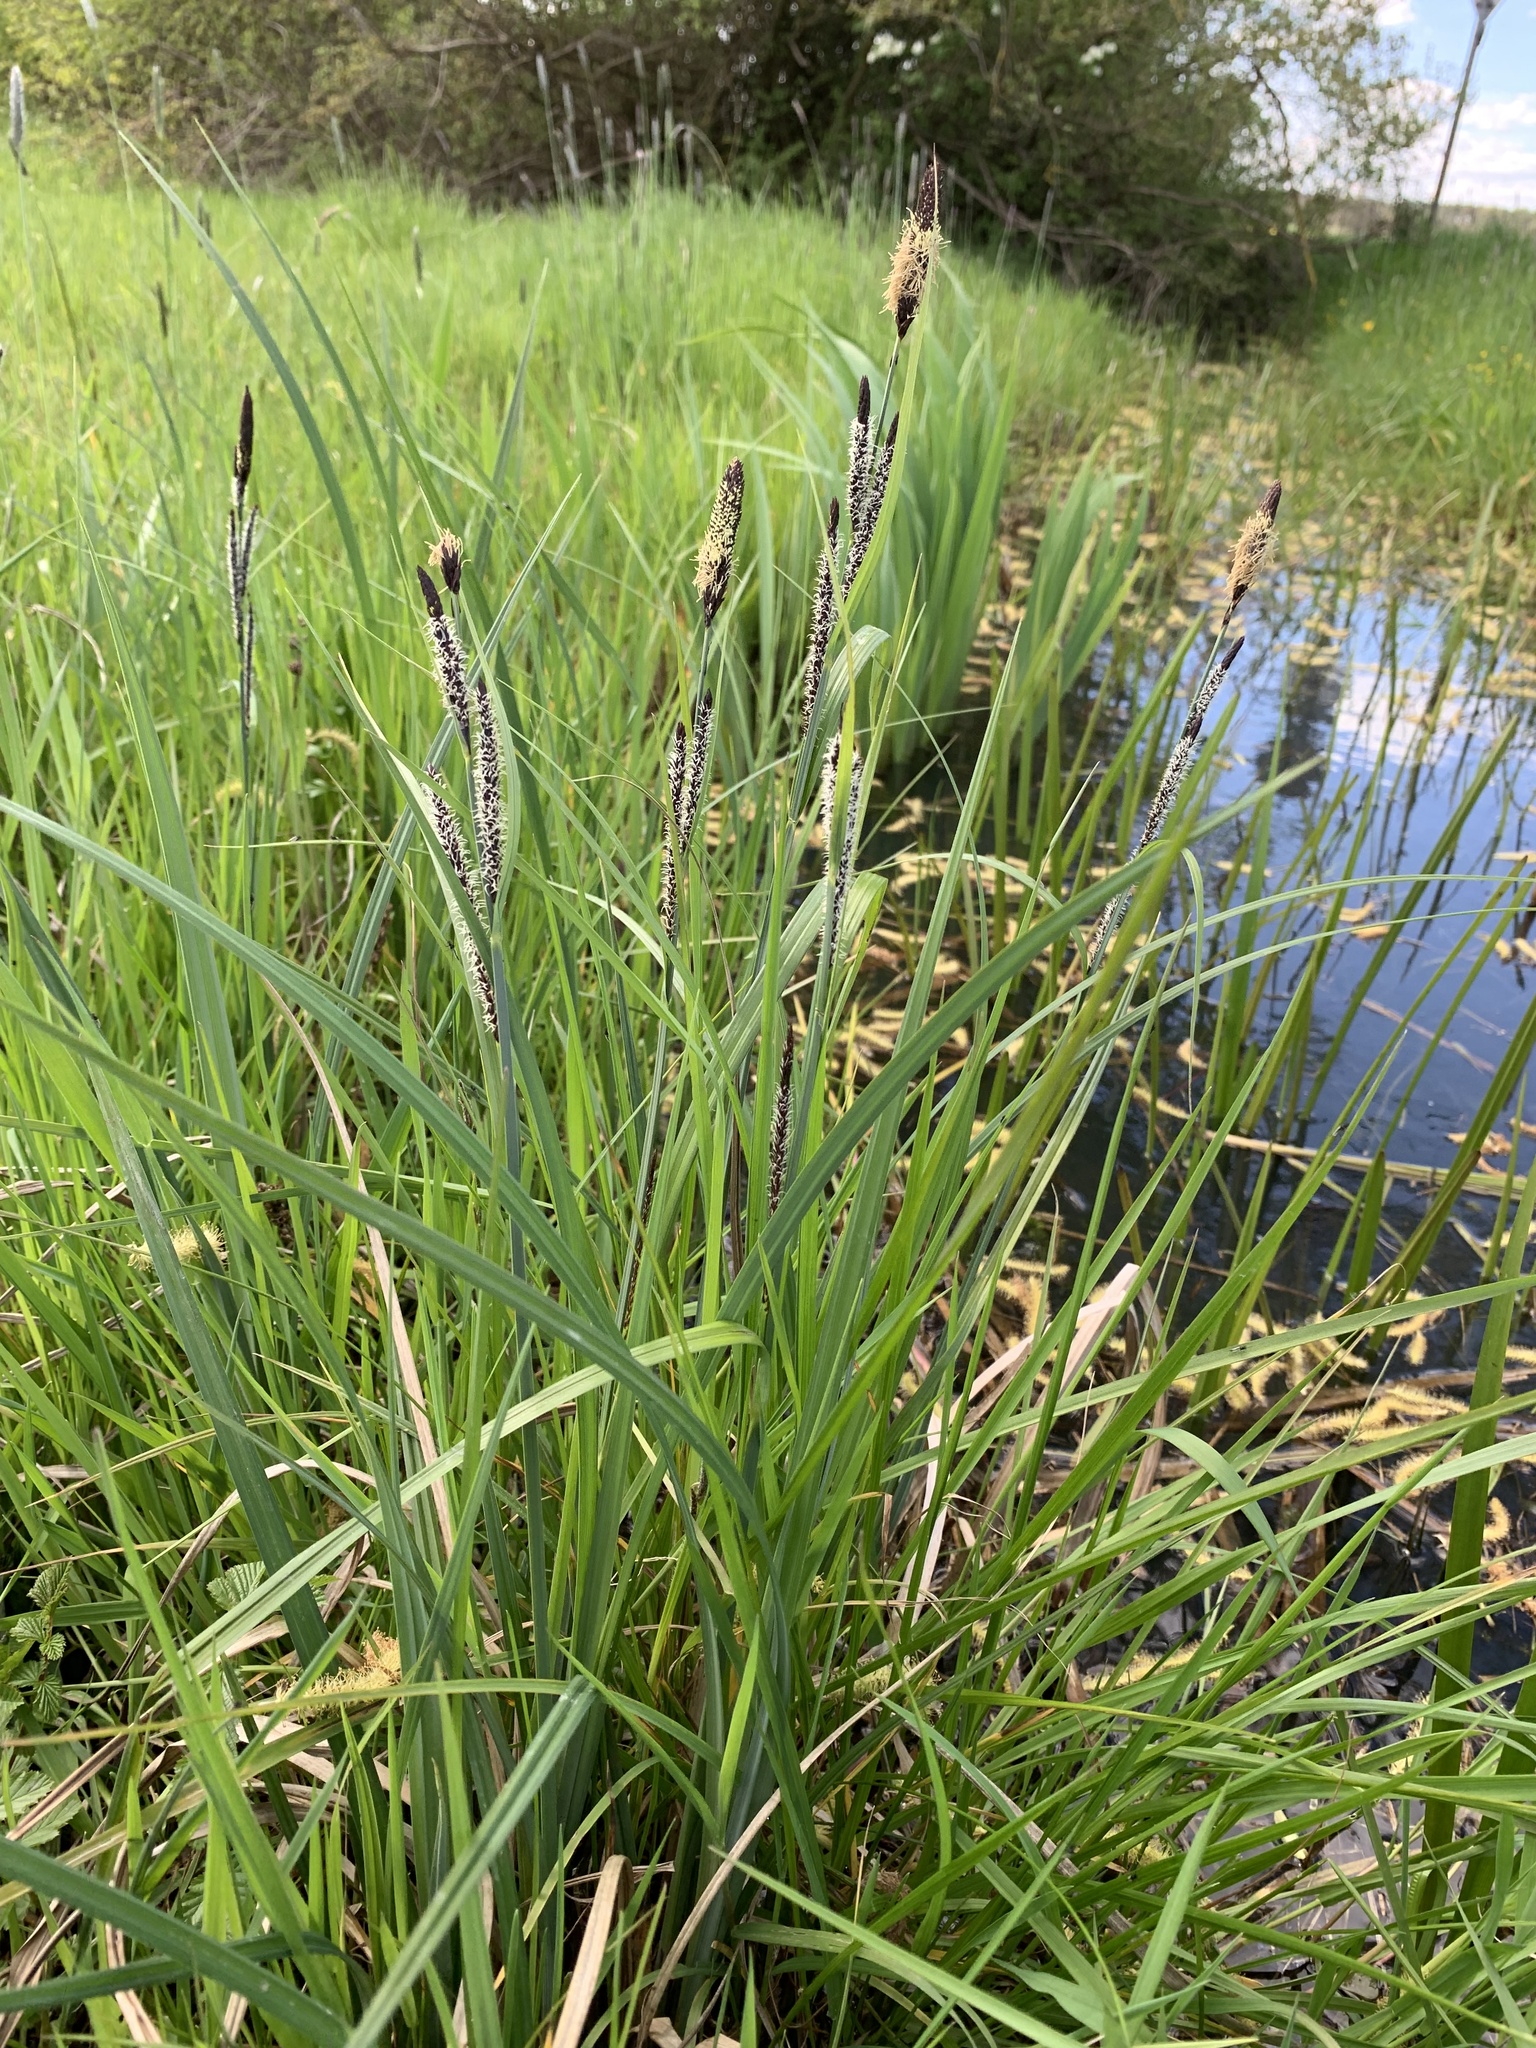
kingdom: Plantae
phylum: Tracheophyta
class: Liliopsida
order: Poales
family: Cyperaceae
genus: Carex
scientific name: Carex acutiformis
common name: Lesser pond-sedge
